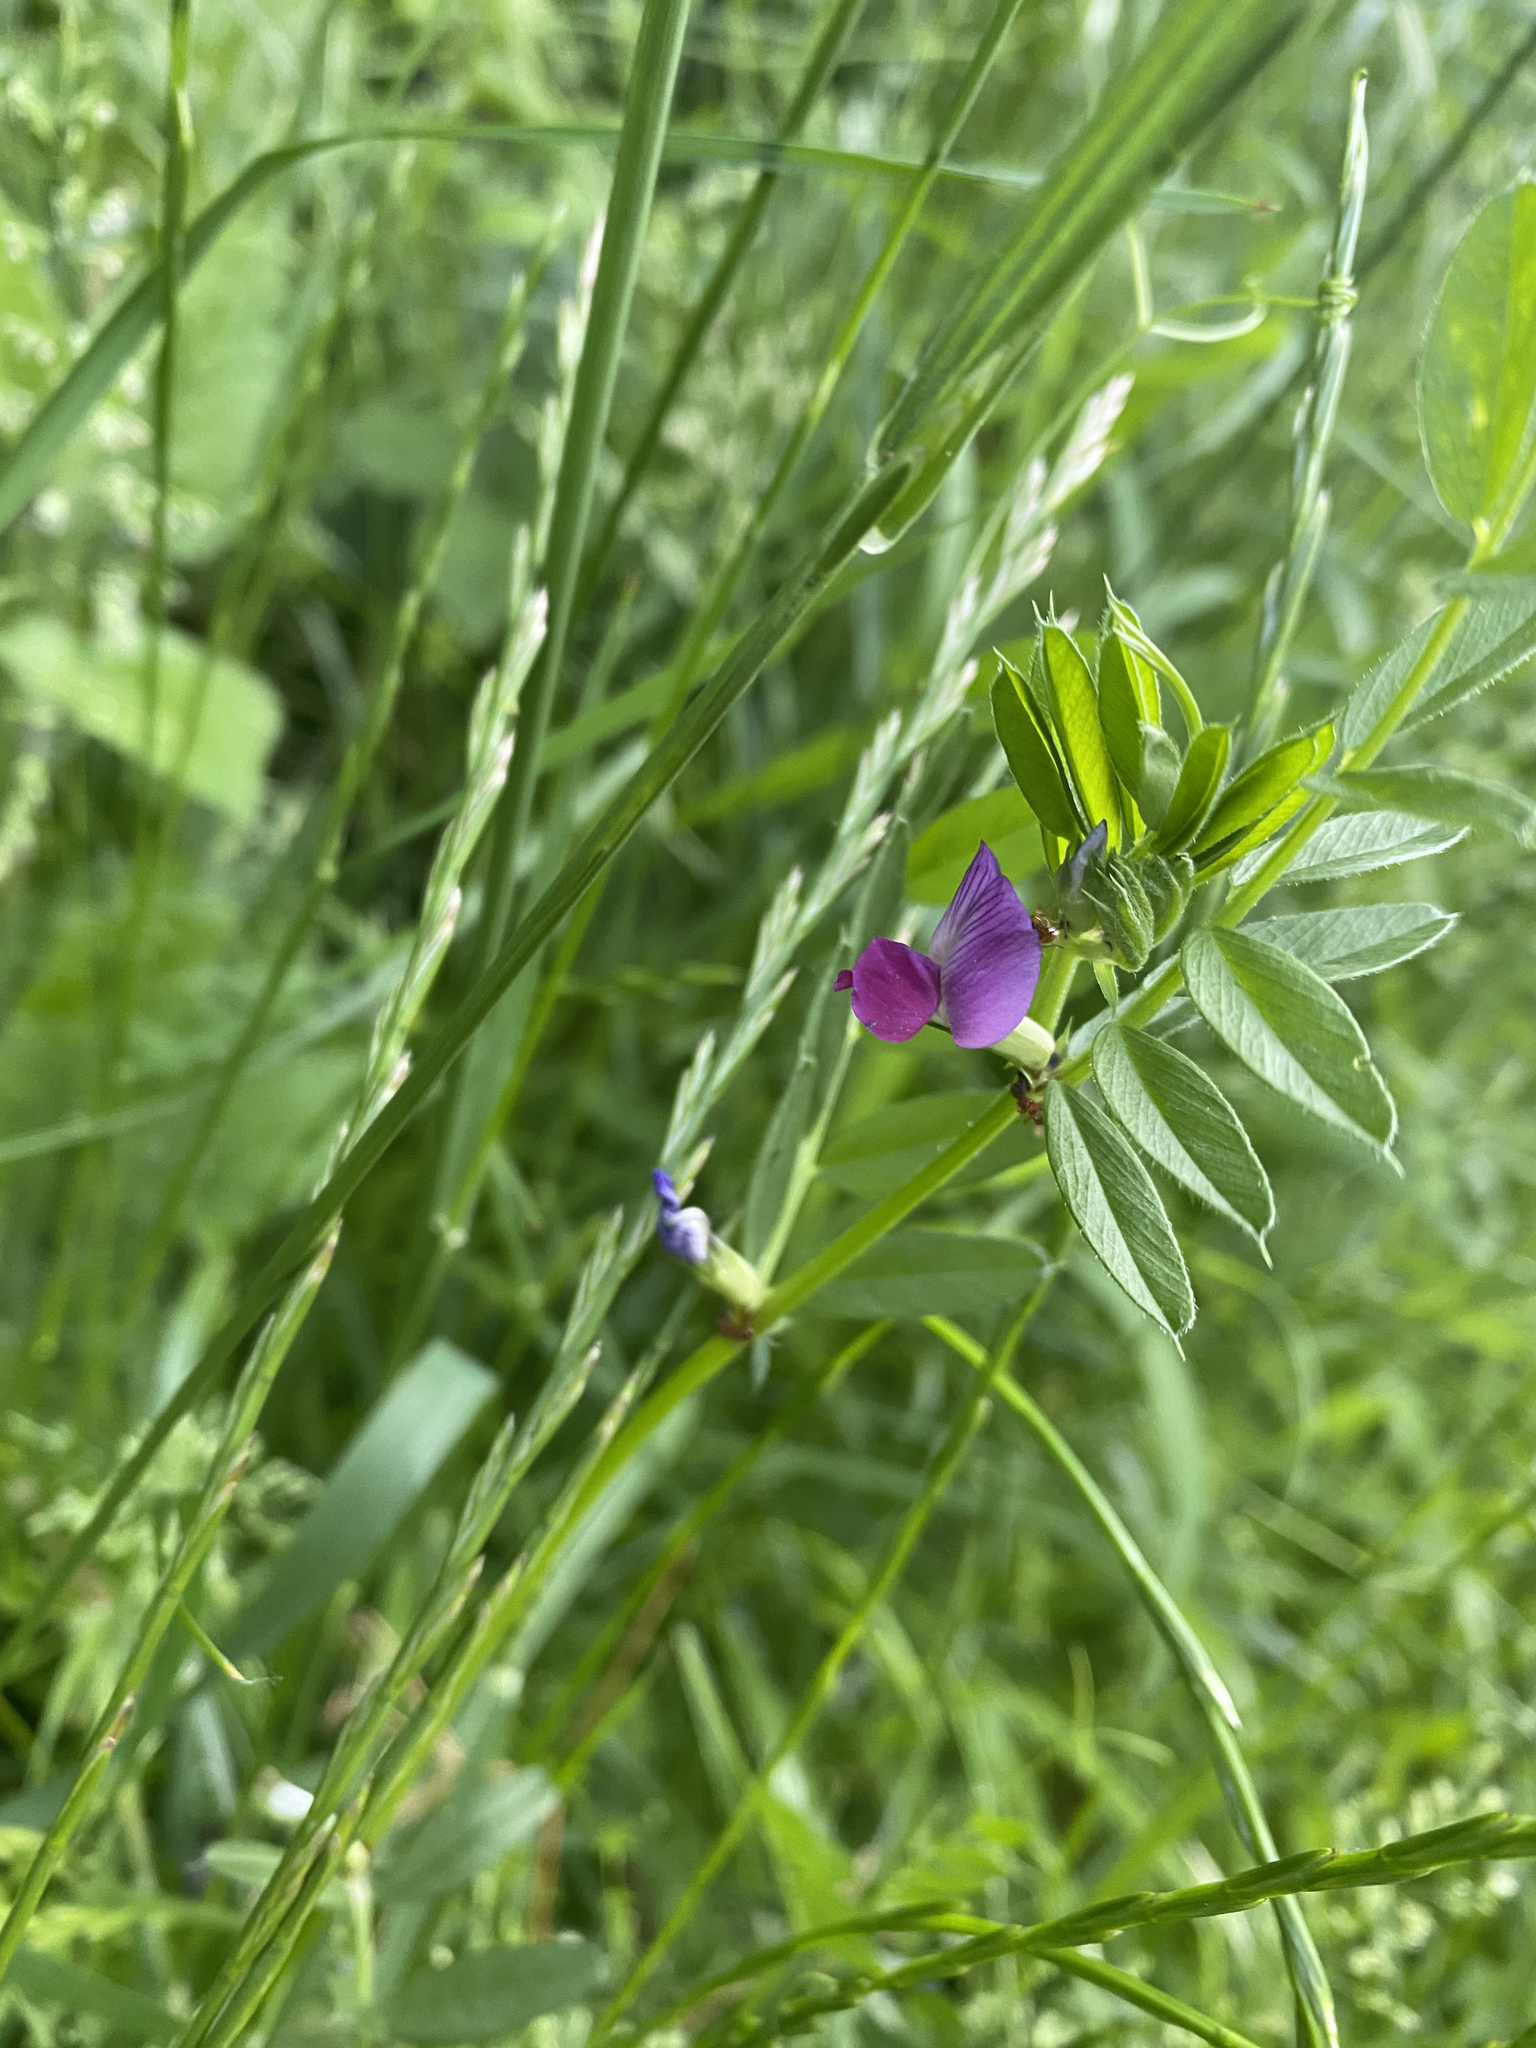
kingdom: Plantae
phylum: Tracheophyta
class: Magnoliopsida
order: Fabales
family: Fabaceae
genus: Vicia
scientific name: Vicia sativa
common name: Garden vetch
